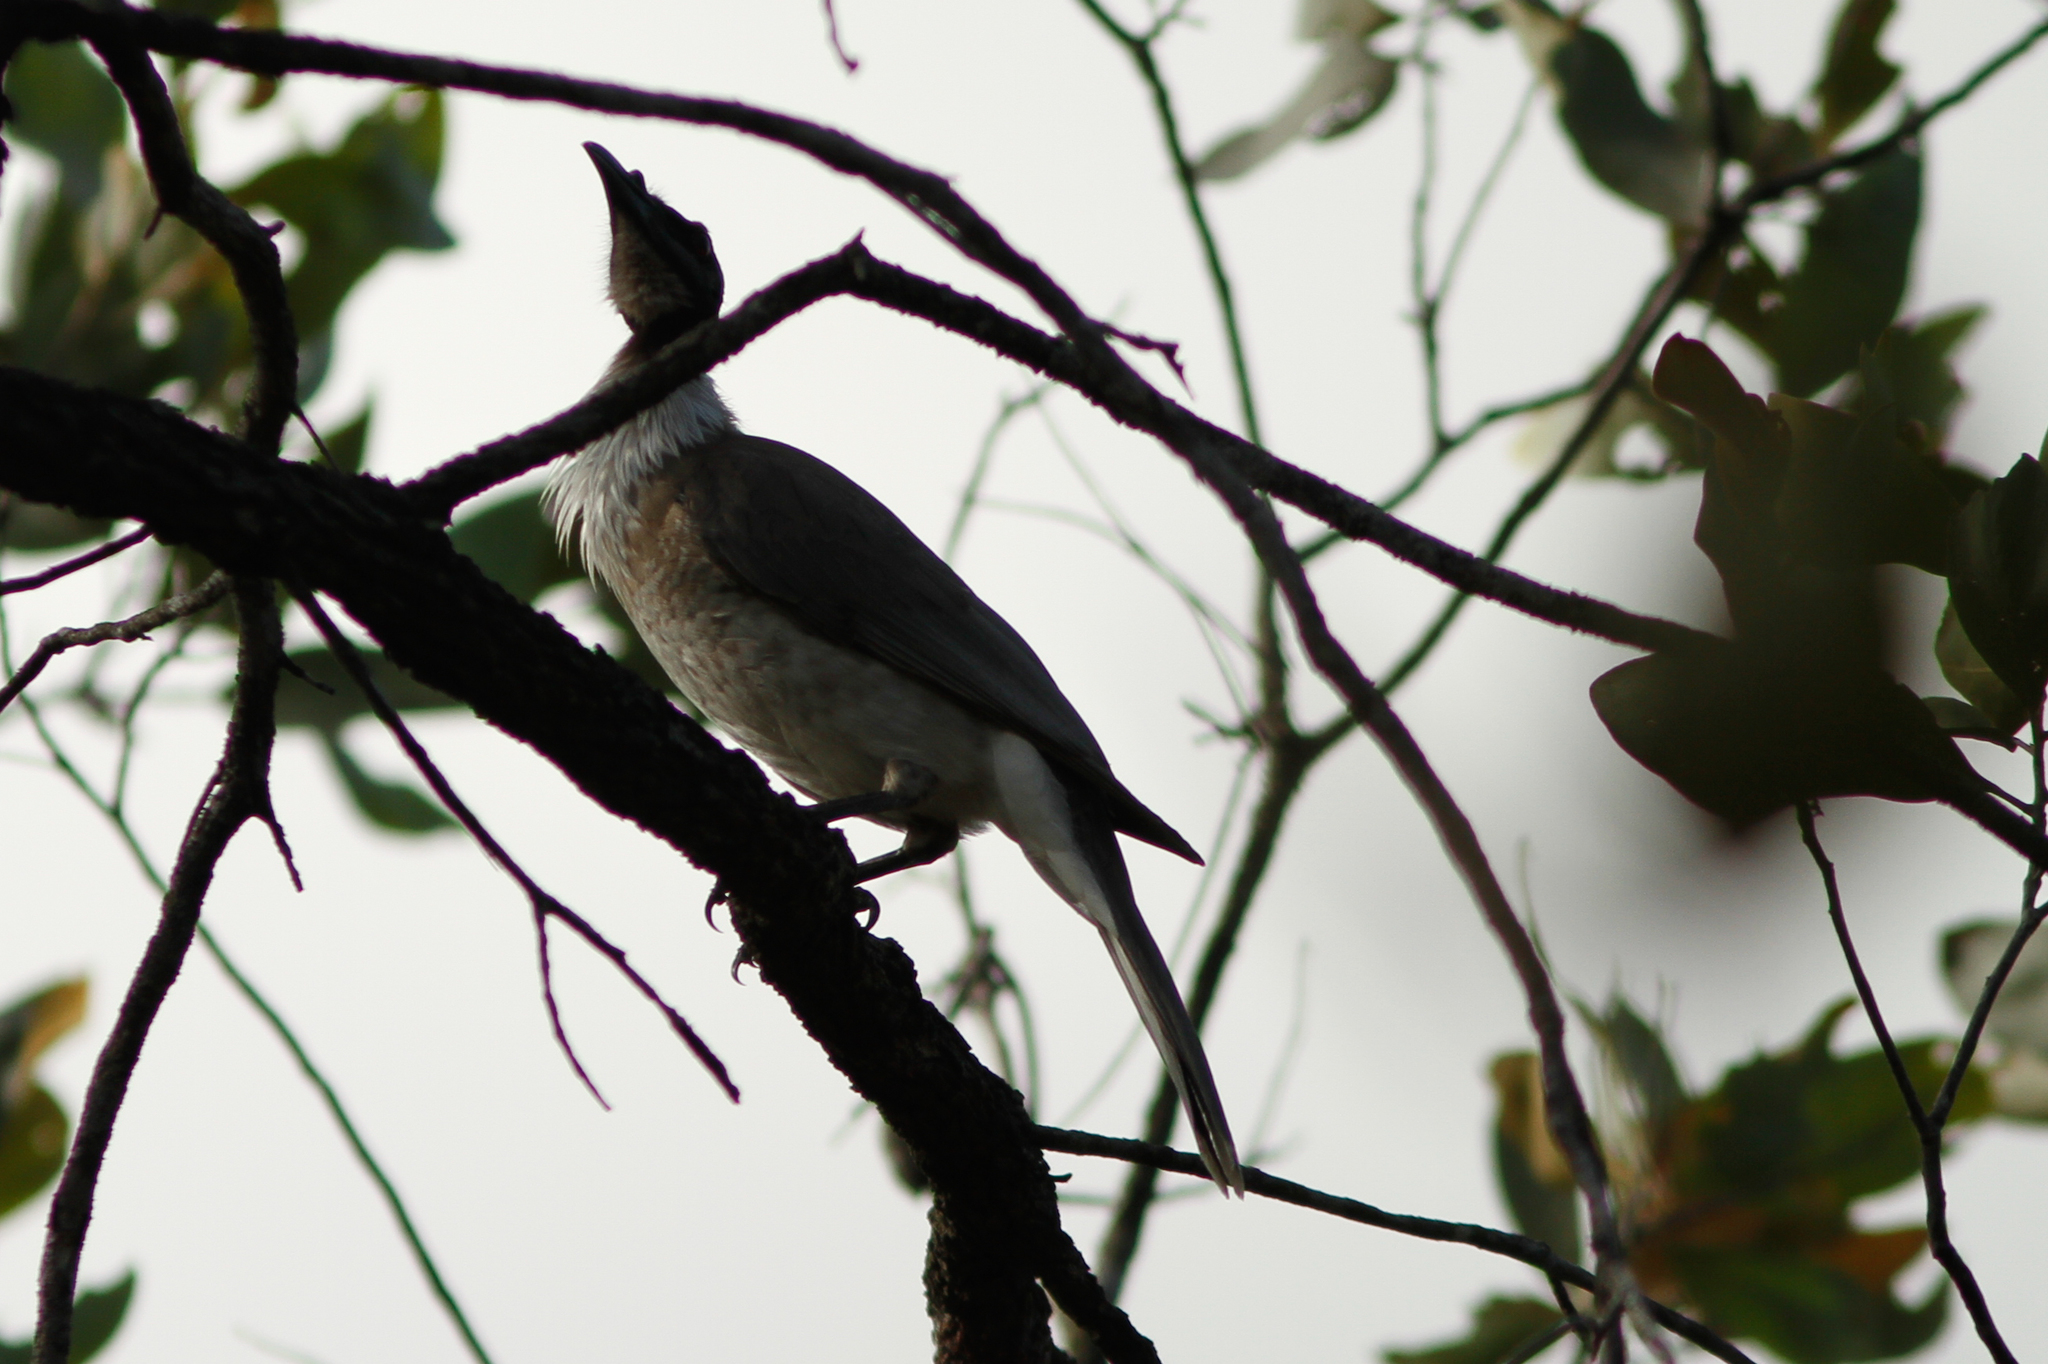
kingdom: Animalia
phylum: Chordata
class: Aves
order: Passeriformes
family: Meliphagidae
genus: Philemon
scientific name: Philemon corniculatus
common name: Noisy friarbird
